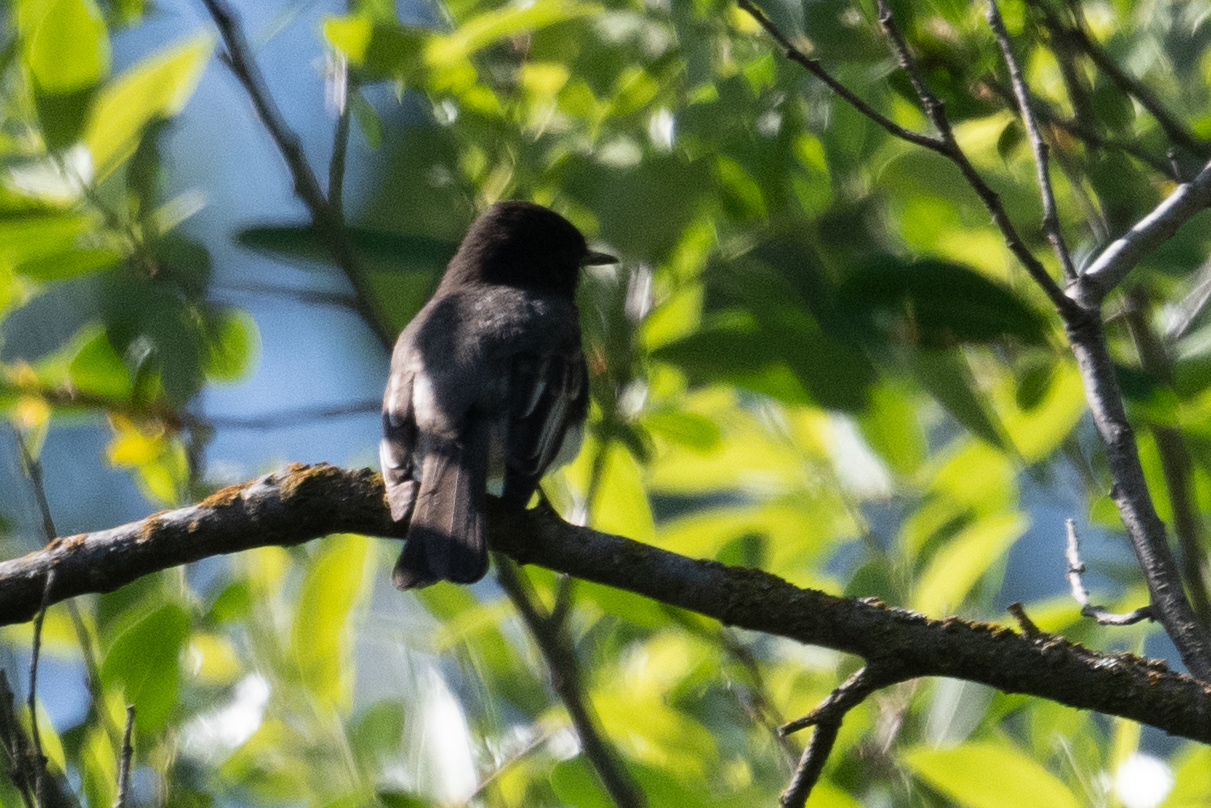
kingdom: Animalia
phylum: Chordata
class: Aves
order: Passeriformes
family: Tyrannidae
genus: Sayornis
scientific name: Sayornis nigricans
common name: Black phoebe
